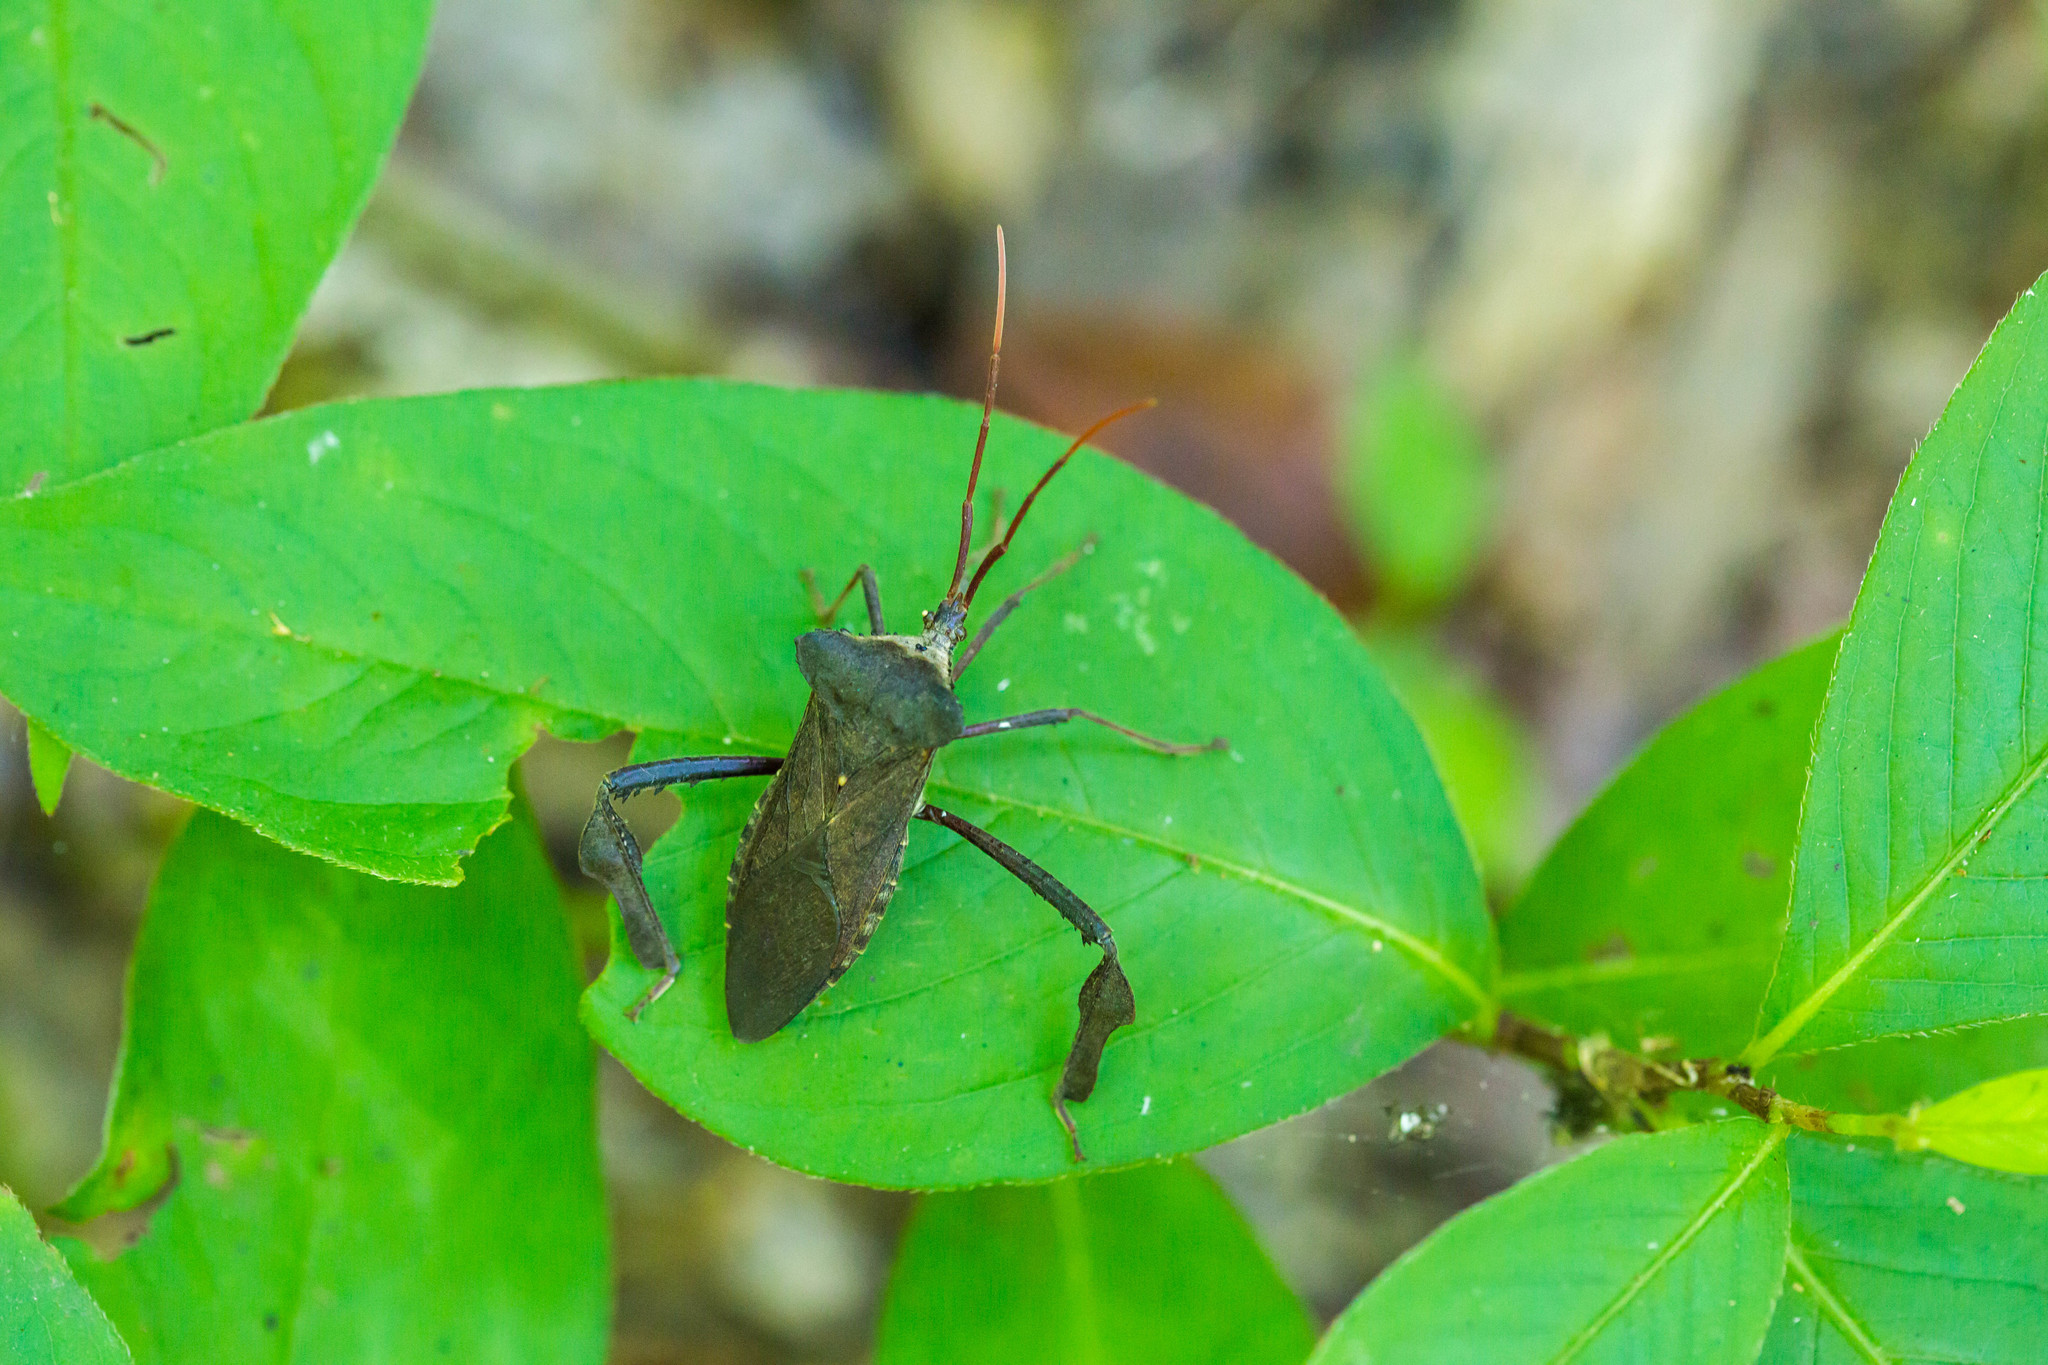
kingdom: Animalia
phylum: Arthropoda
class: Insecta
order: Hemiptera
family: Coreidae
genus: Acanthocephala
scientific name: Acanthocephala declivis
